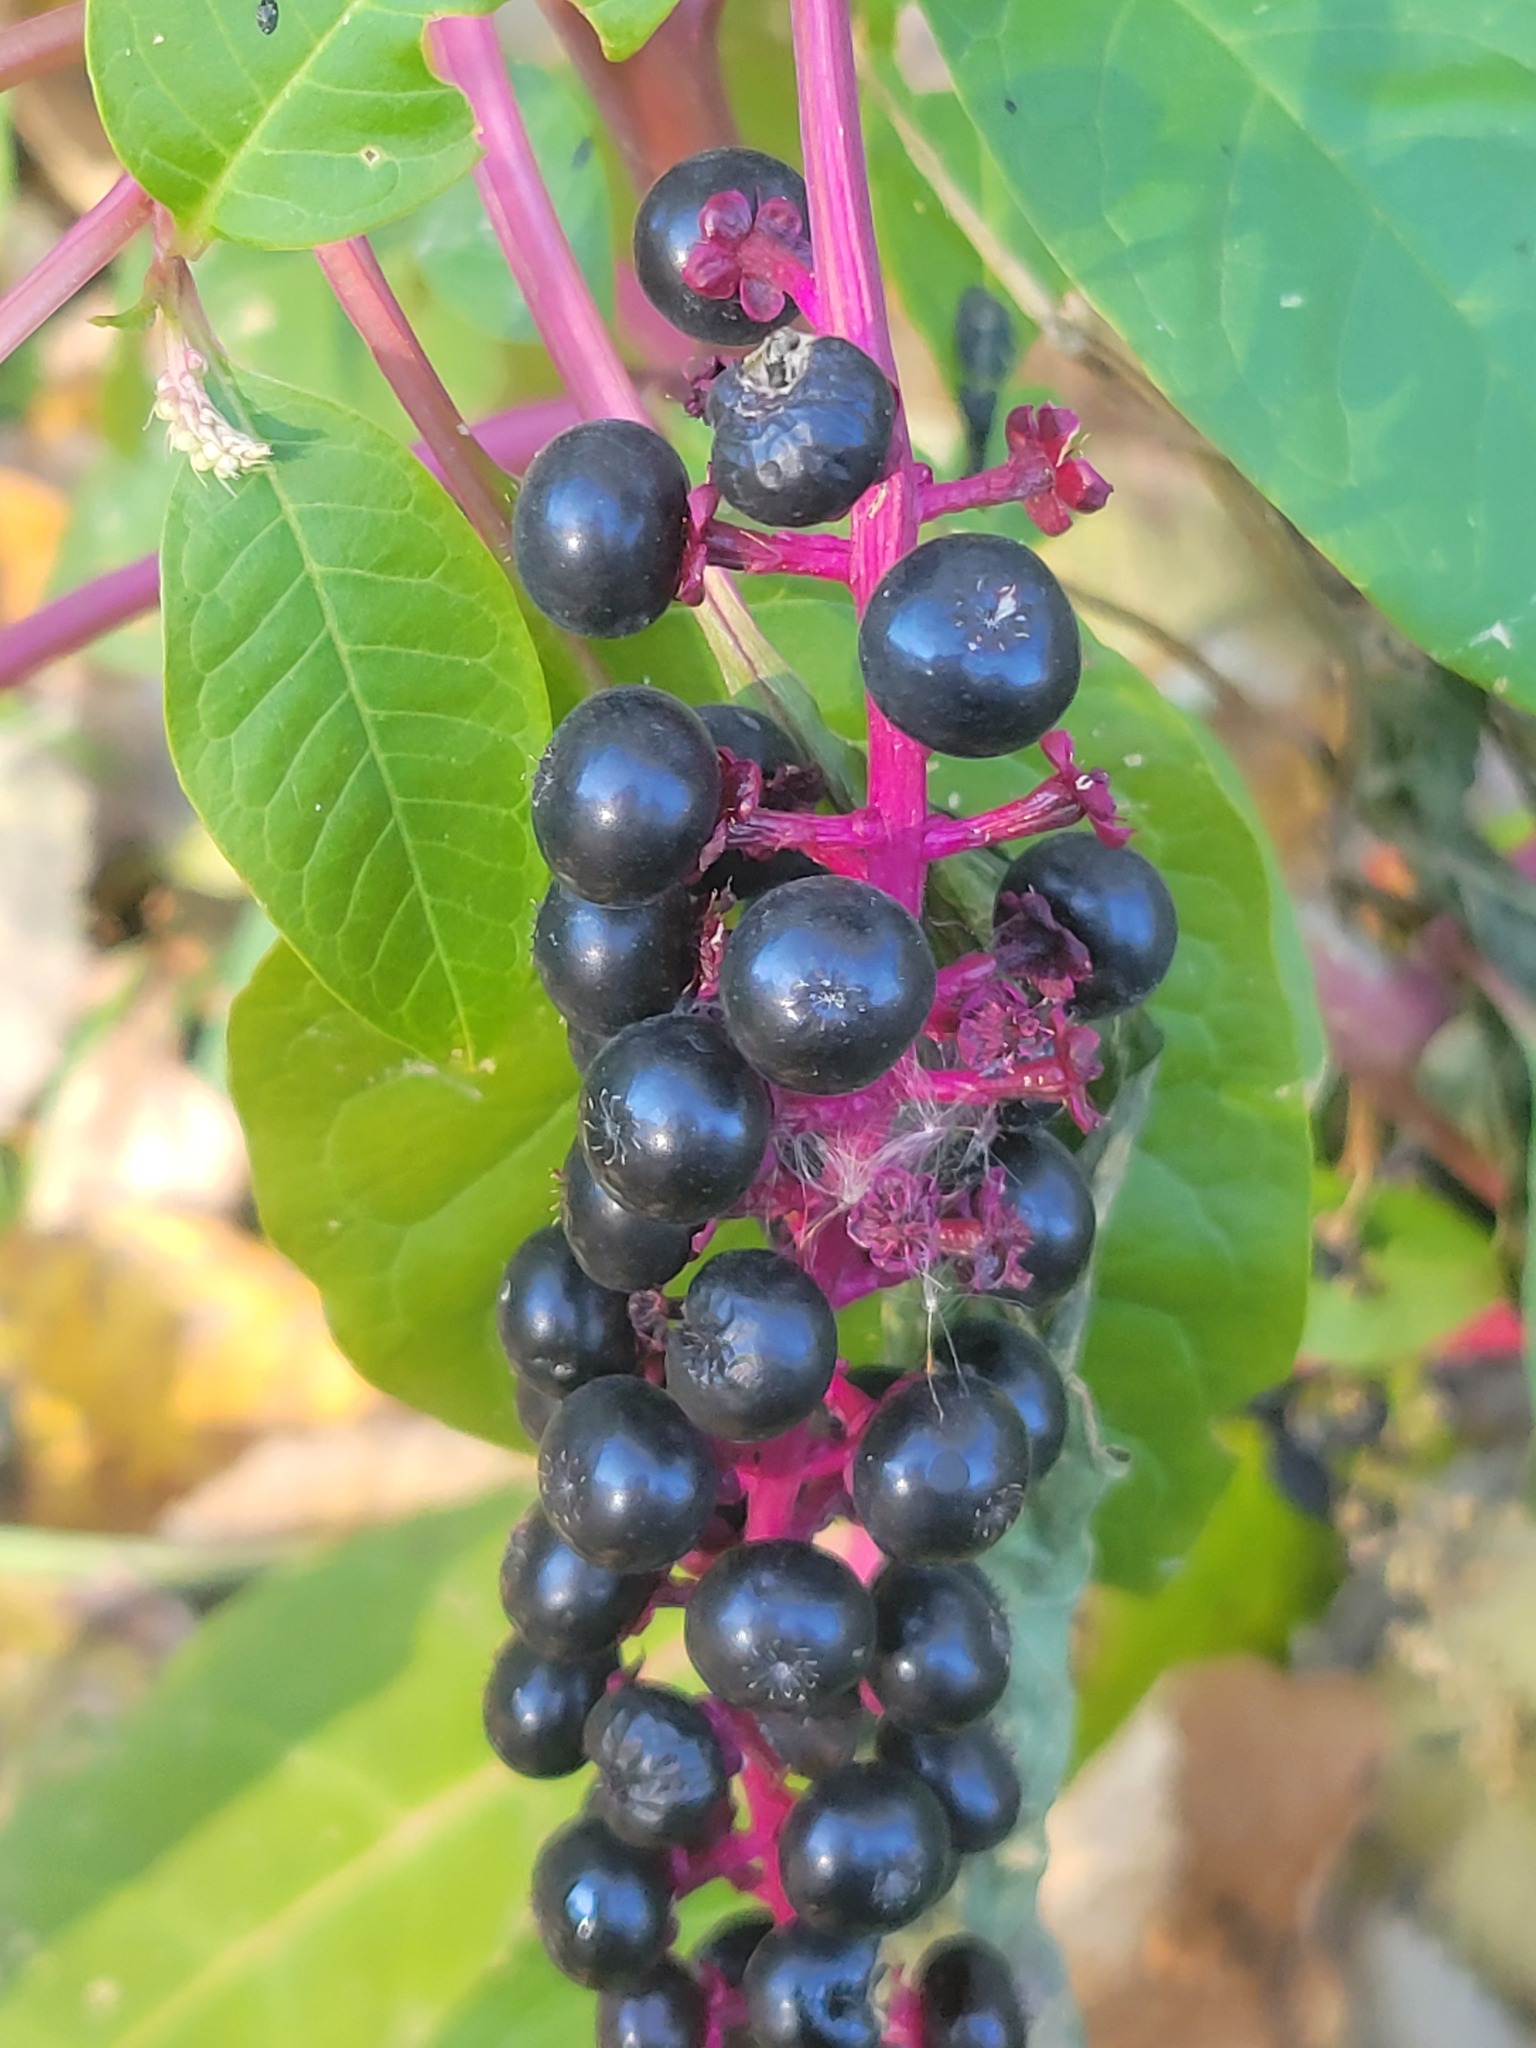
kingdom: Plantae
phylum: Tracheophyta
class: Magnoliopsida
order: Caryophyllales
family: Phytolaccaceae
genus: Phytolacca
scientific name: Phytolacca americana
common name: American pokeweed
